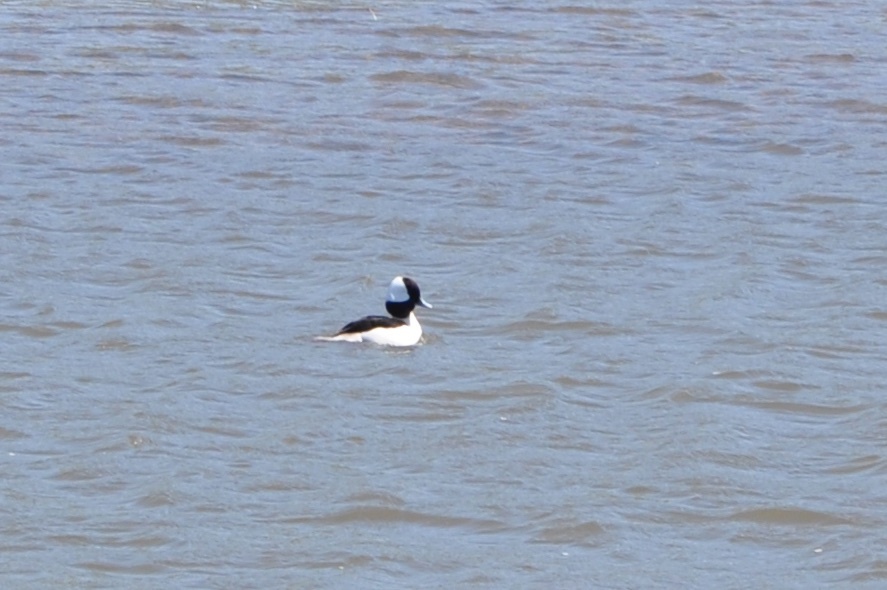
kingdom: Animalia
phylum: Chordata
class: Aves
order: Anseriformes
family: Anatidae
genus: Bucephala
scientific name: Bucephala albeola
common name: Bufflehead
